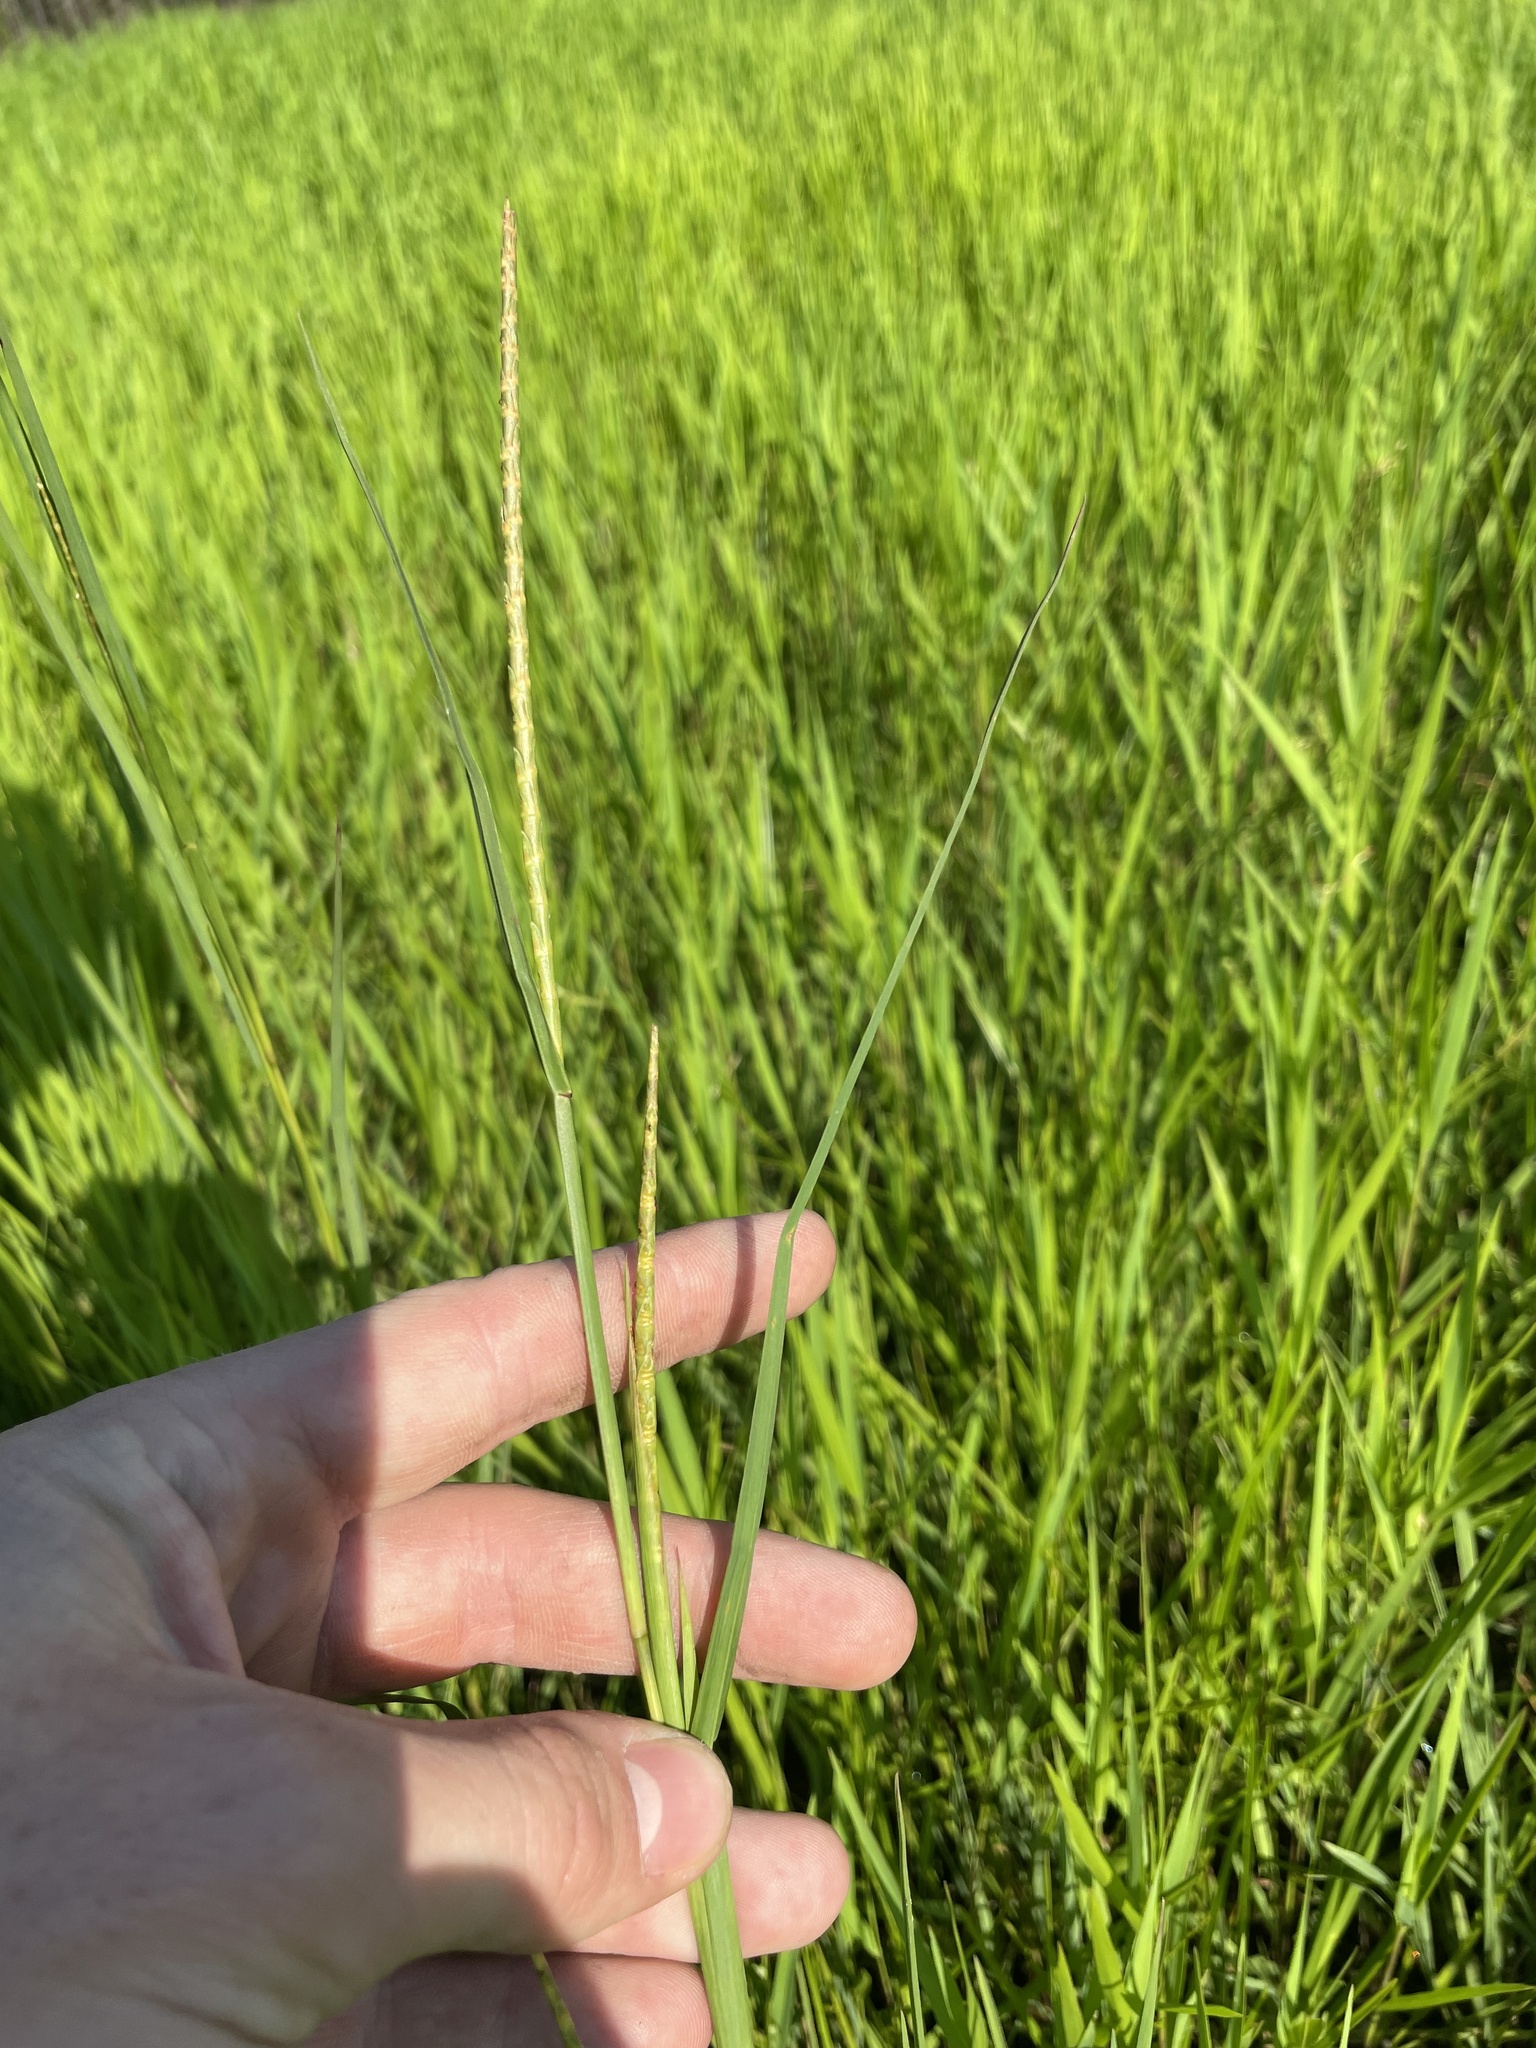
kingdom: Plantae
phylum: Tracheophyta
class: Liliopsida
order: Poales
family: Poaceae
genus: Rottboellia
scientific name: Rottboellia rugosa
